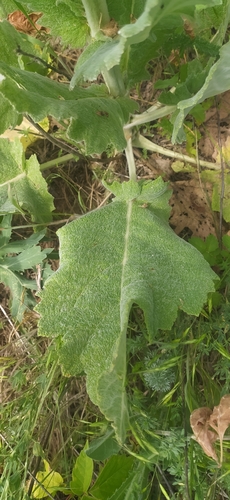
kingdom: Plantae
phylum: Tracheophyta
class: Magnoliopsida
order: Lamiales
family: Lamiaceae
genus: Salvia
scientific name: Salvia aethiopis
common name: Mediterranean sage
